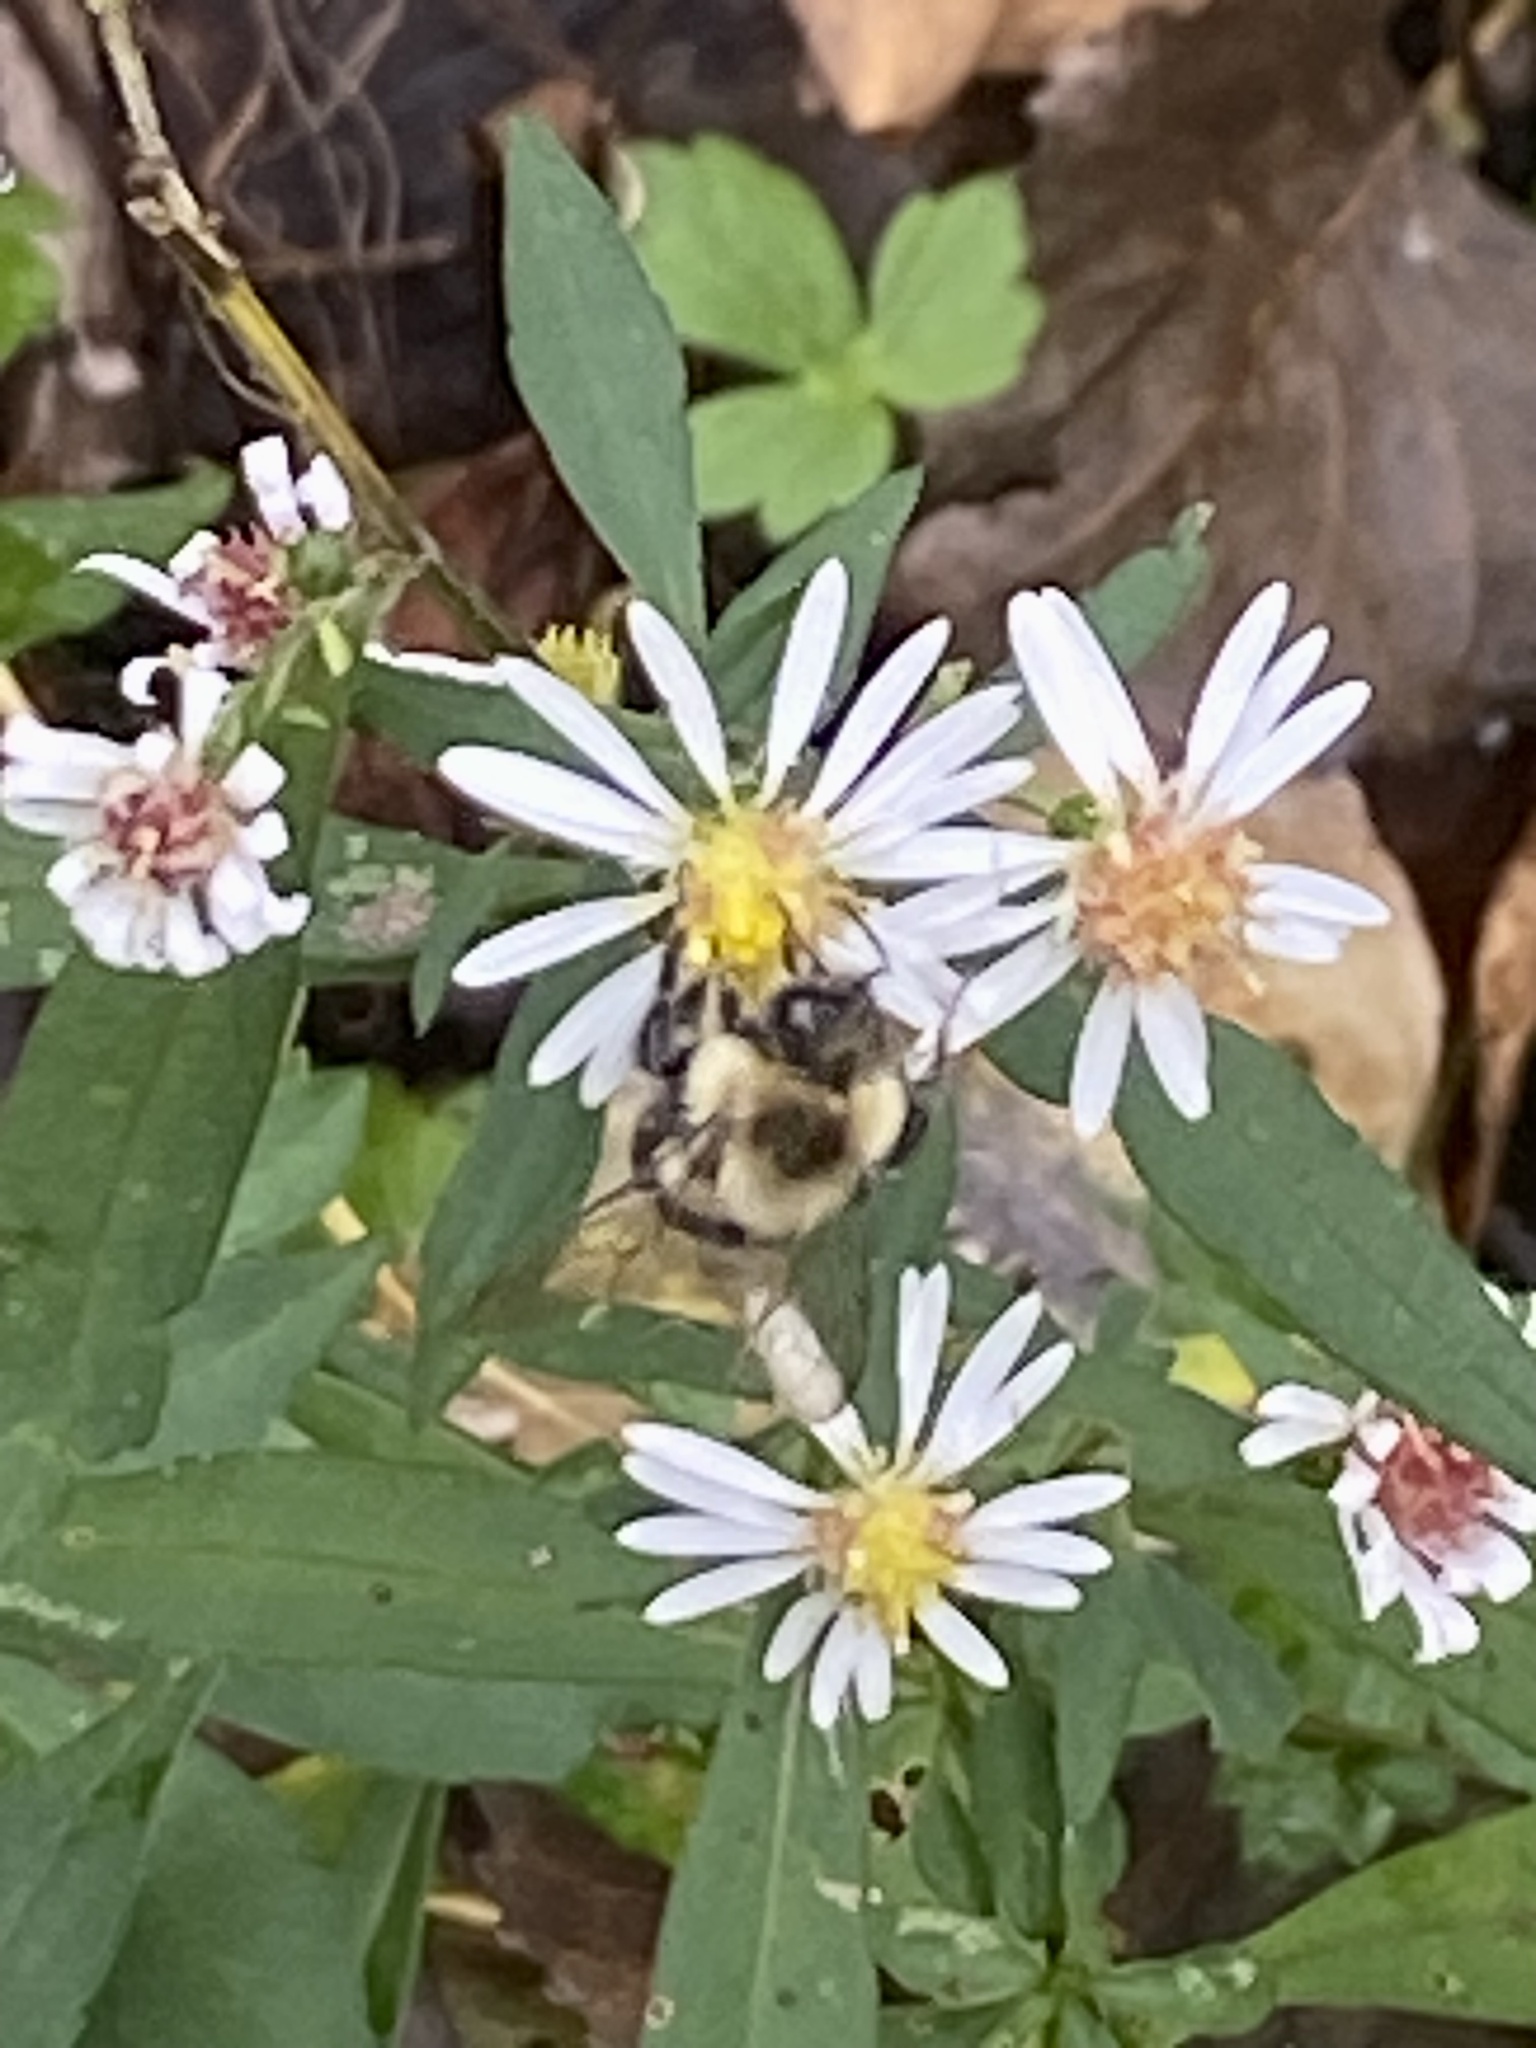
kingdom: Animalia
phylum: Arthropoda
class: Insecta
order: Hymenoptera
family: Apidae
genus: Bombus
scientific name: Bombus impatiens
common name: Common eastern bumble bee
